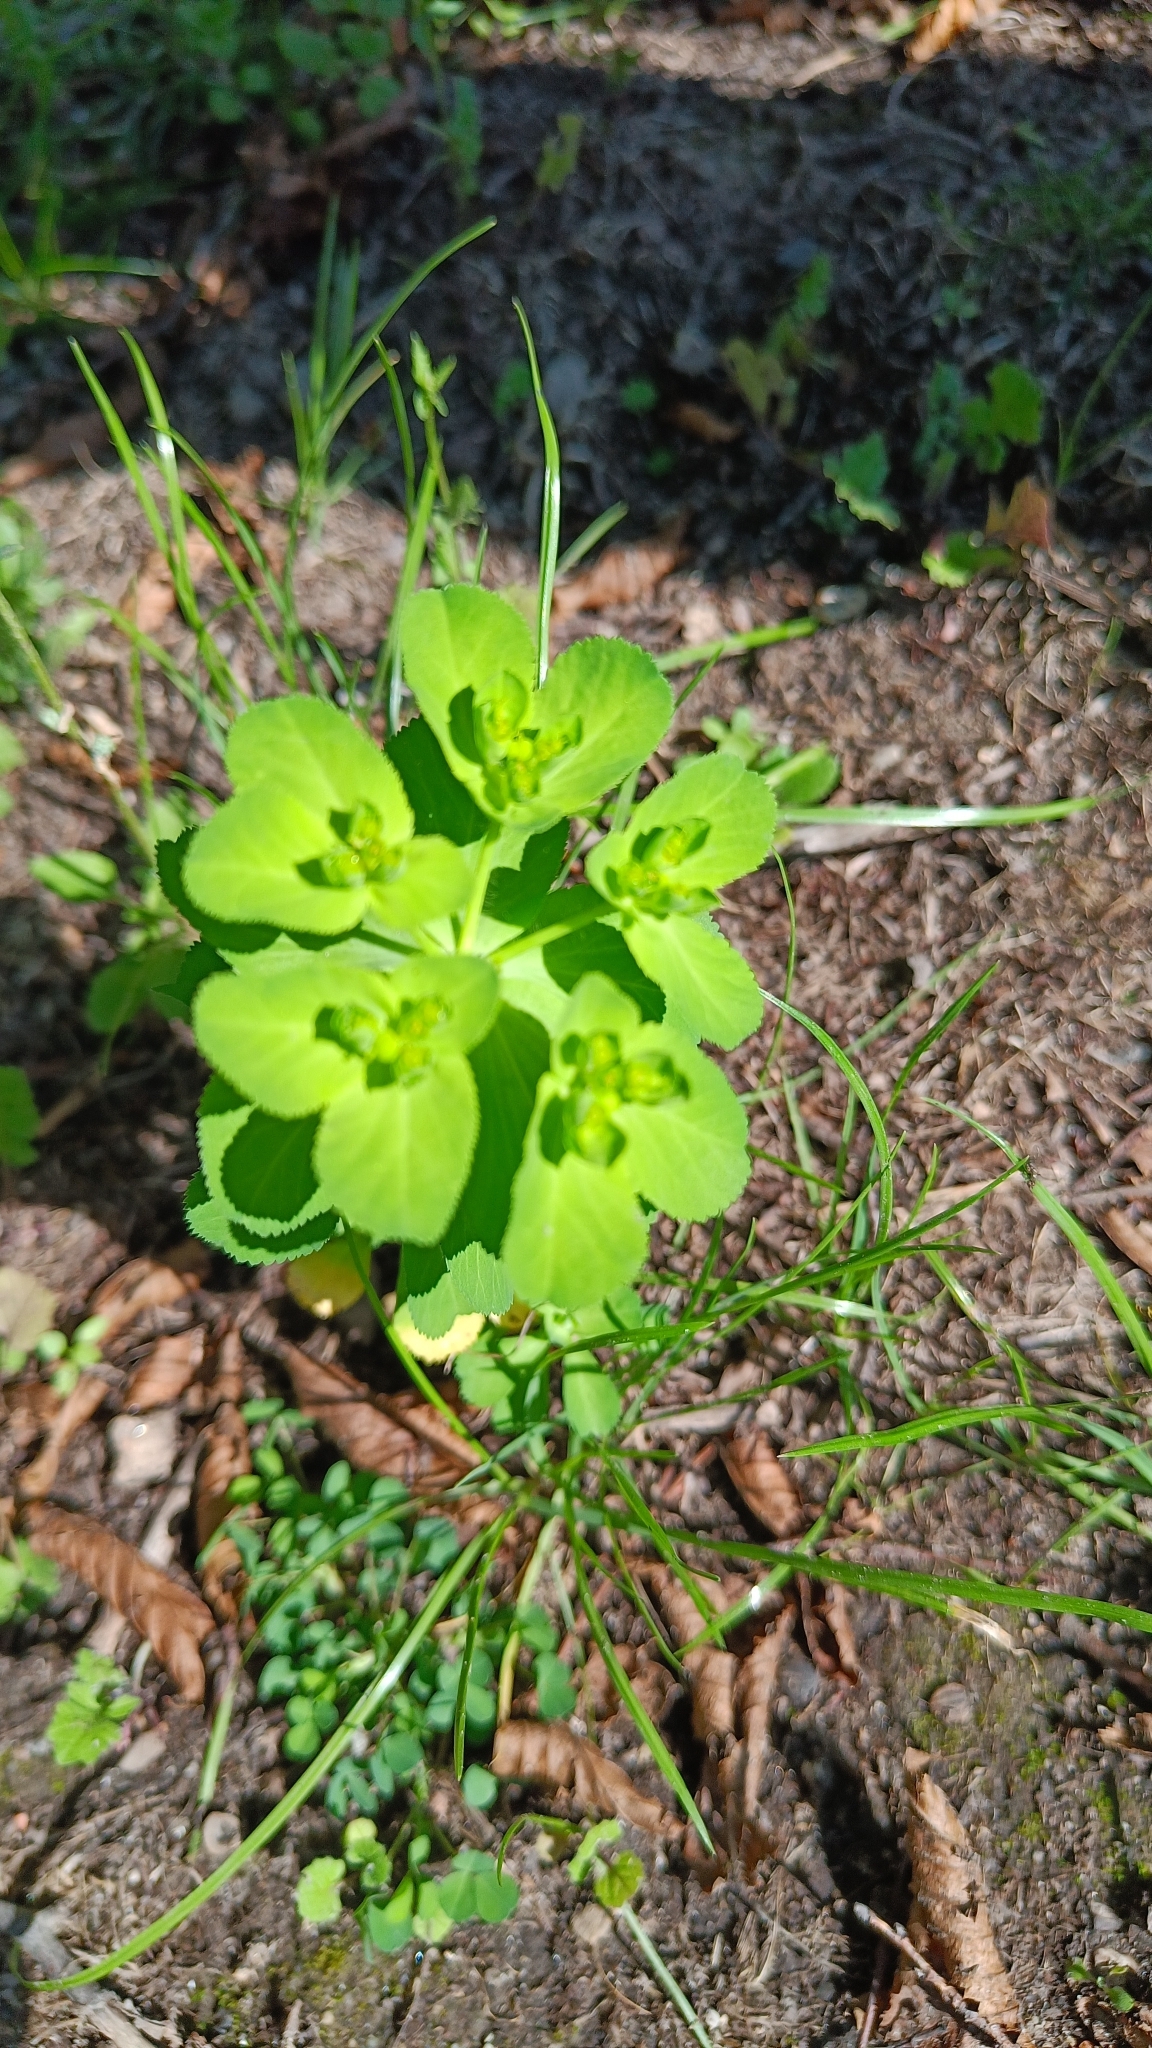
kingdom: Plantae
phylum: Tracheophyta
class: Magnoliopsida
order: Malpighiales
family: Euphorbiaceae
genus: Euphorbia
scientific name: Euphorbia helioscopia
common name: Sun spurge
